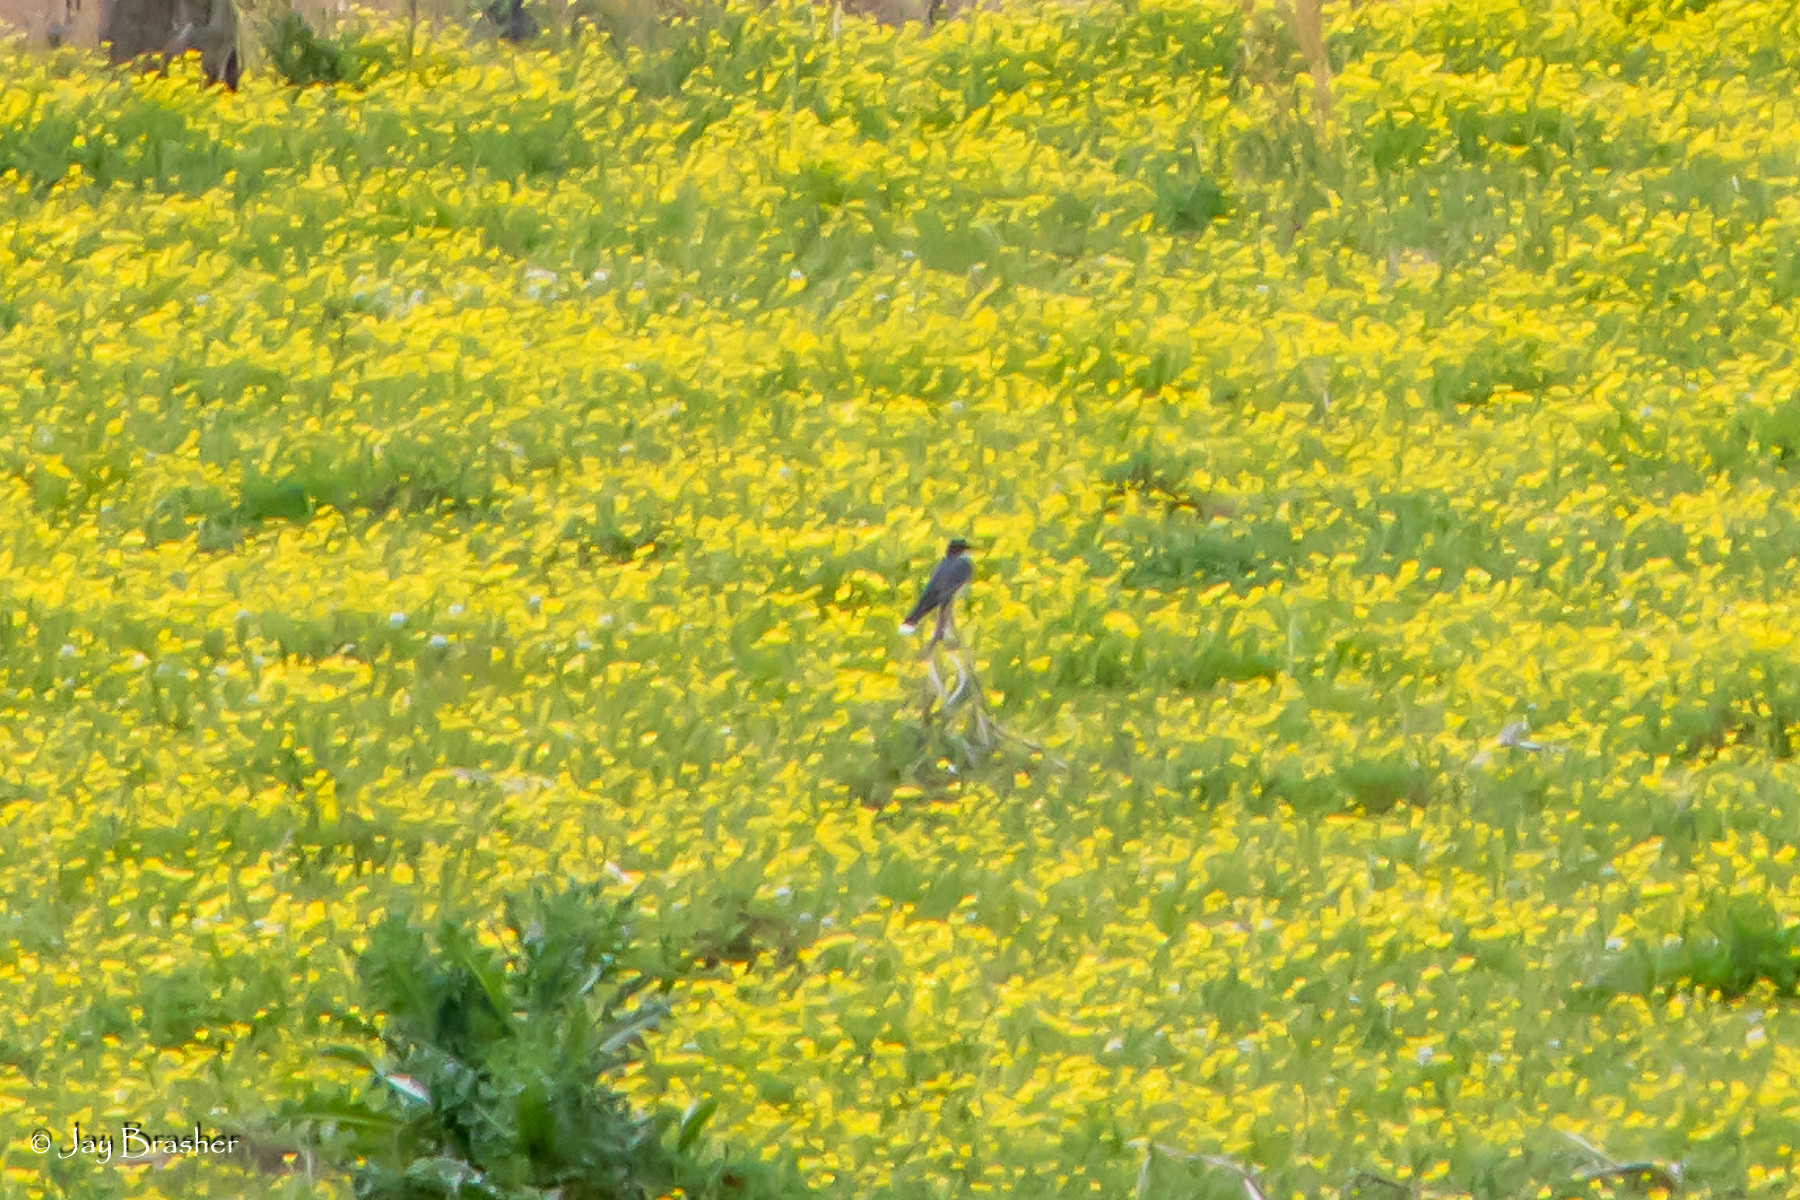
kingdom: Animalia
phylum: Chordata
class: Aves
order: Passeriformes
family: Tyrannidae
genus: Tyrannus
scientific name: Tyrannus tyrannus
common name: Eastern kingbird
